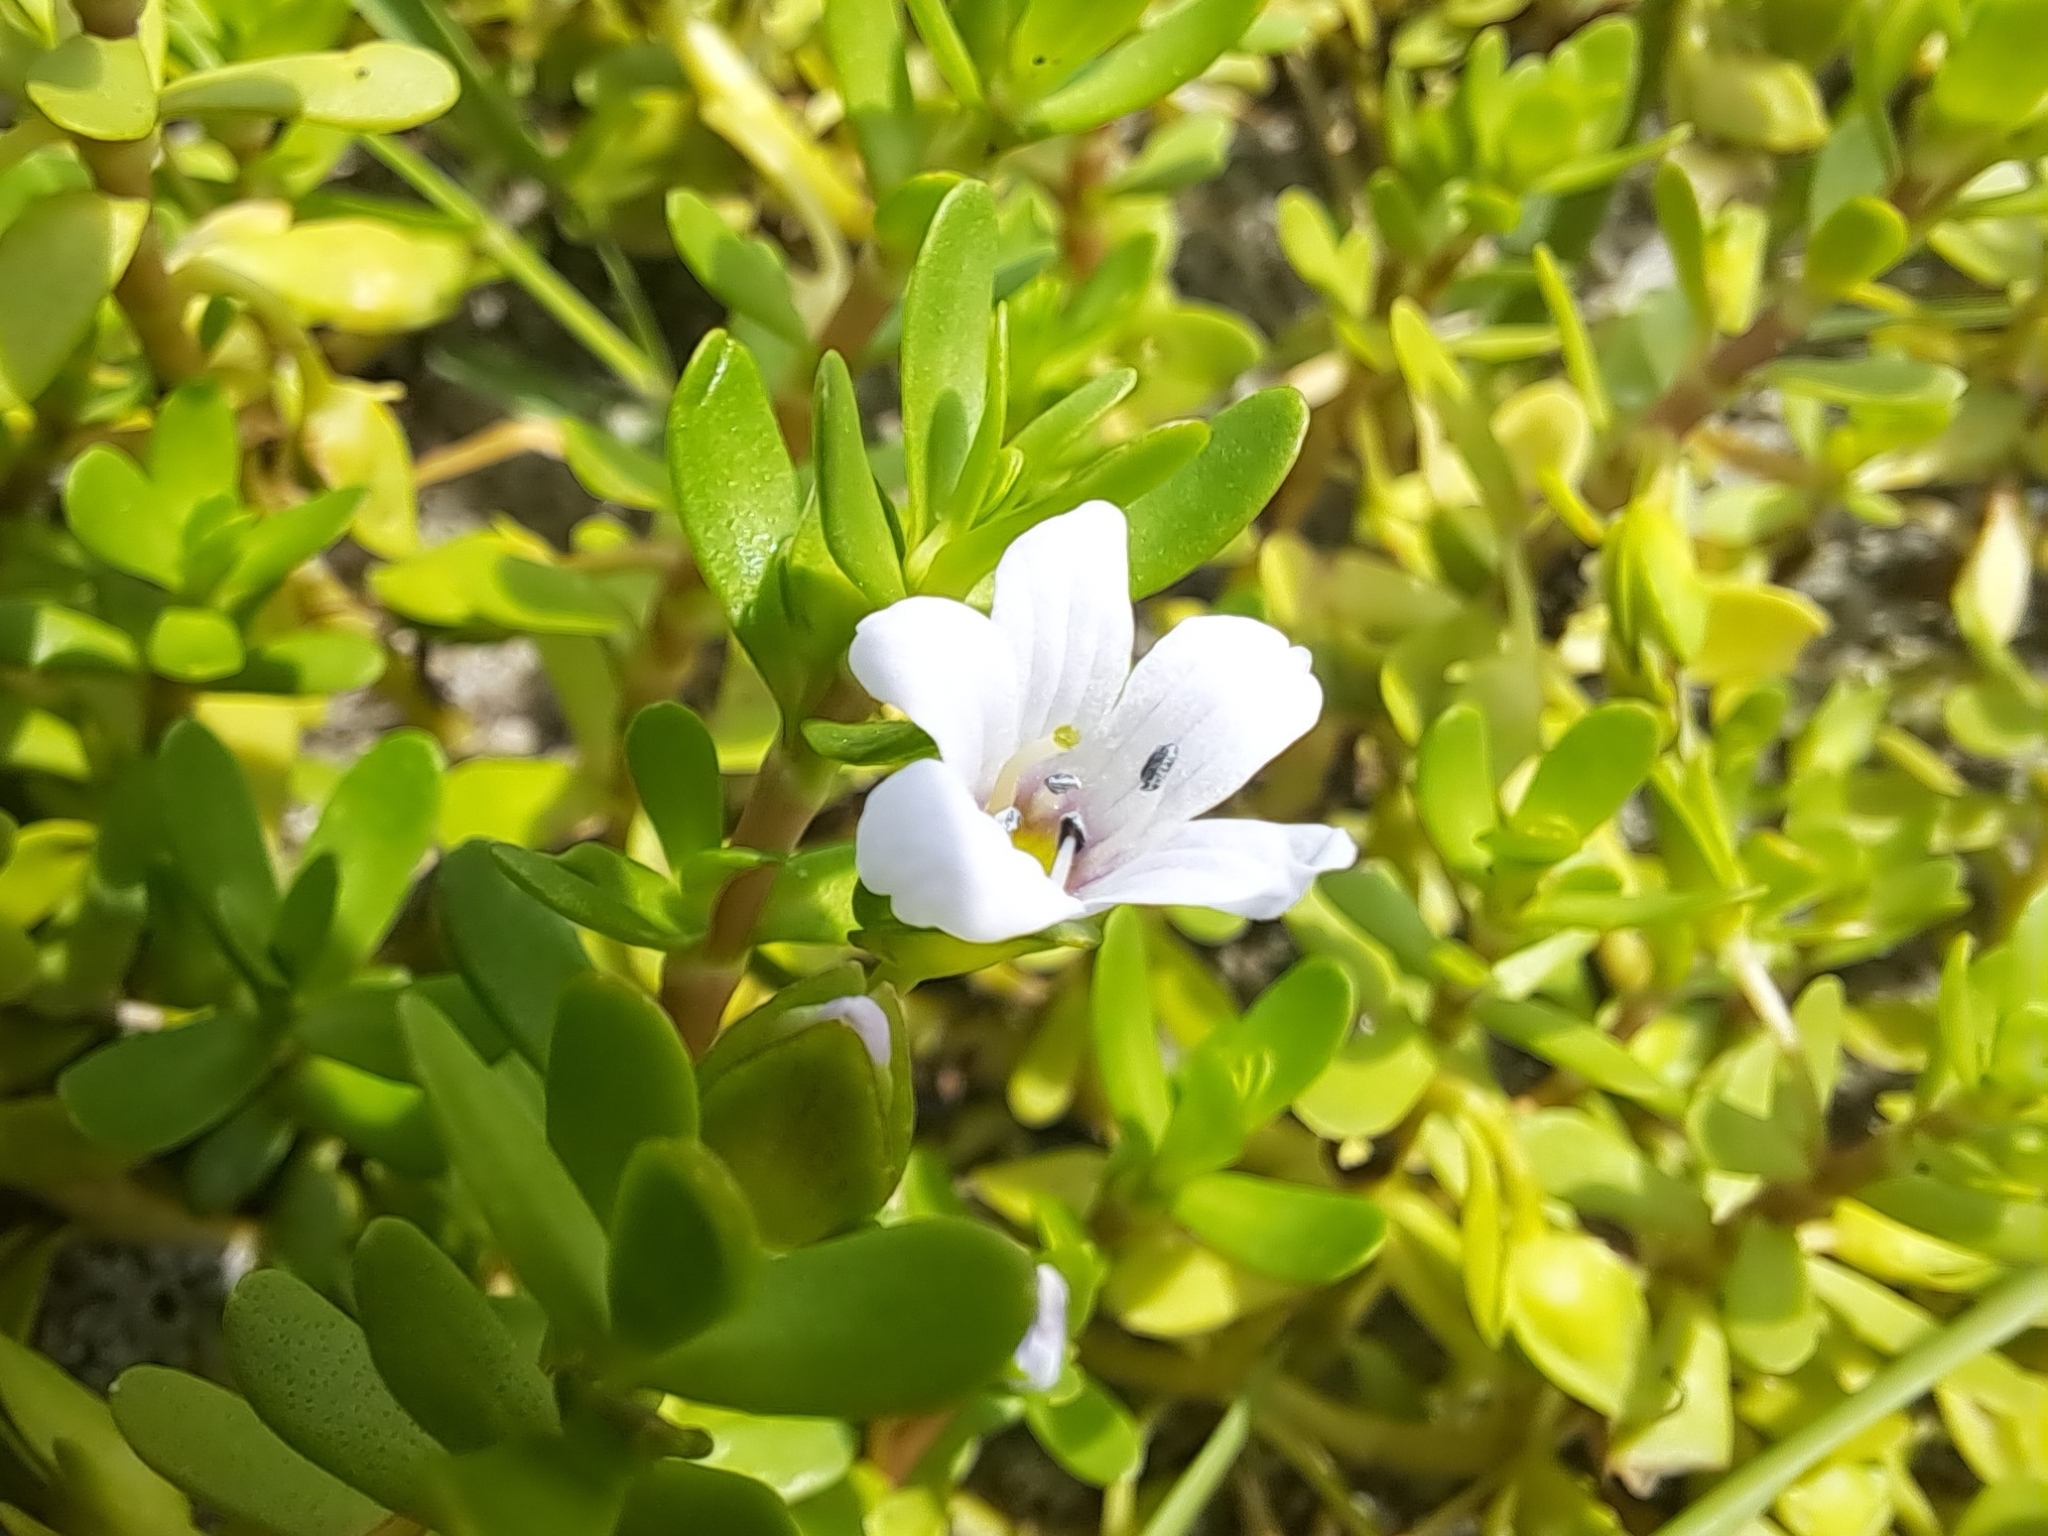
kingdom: Plantae
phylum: Tracheophyta
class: Magnoliopsida
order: Lamiales
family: Plantaginaceae
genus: Bacopa
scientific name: Bacopa monnieri
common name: Indian-pennywort
